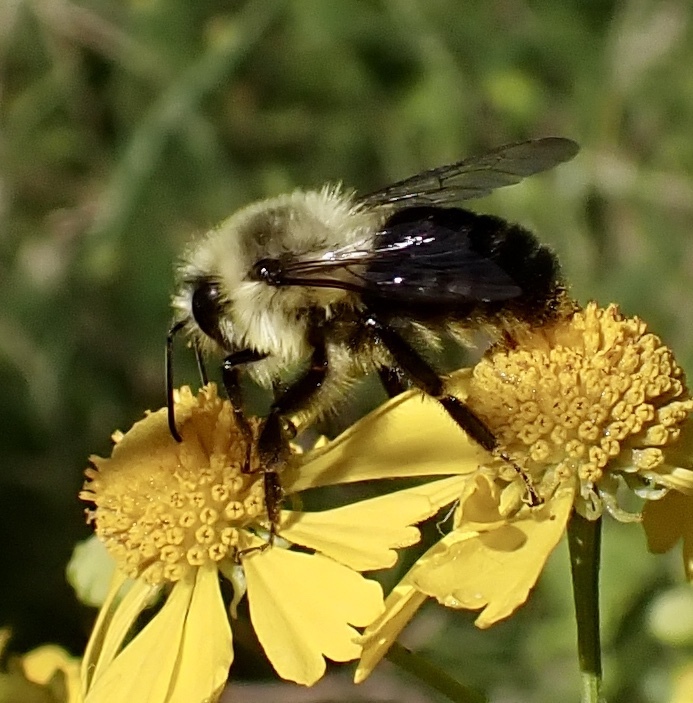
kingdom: Animalia
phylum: Arthropoda
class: Insecta
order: Hymenoptera
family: Apidae
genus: Bombus
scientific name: Bombus impatiens
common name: Common eastern bumble bee
